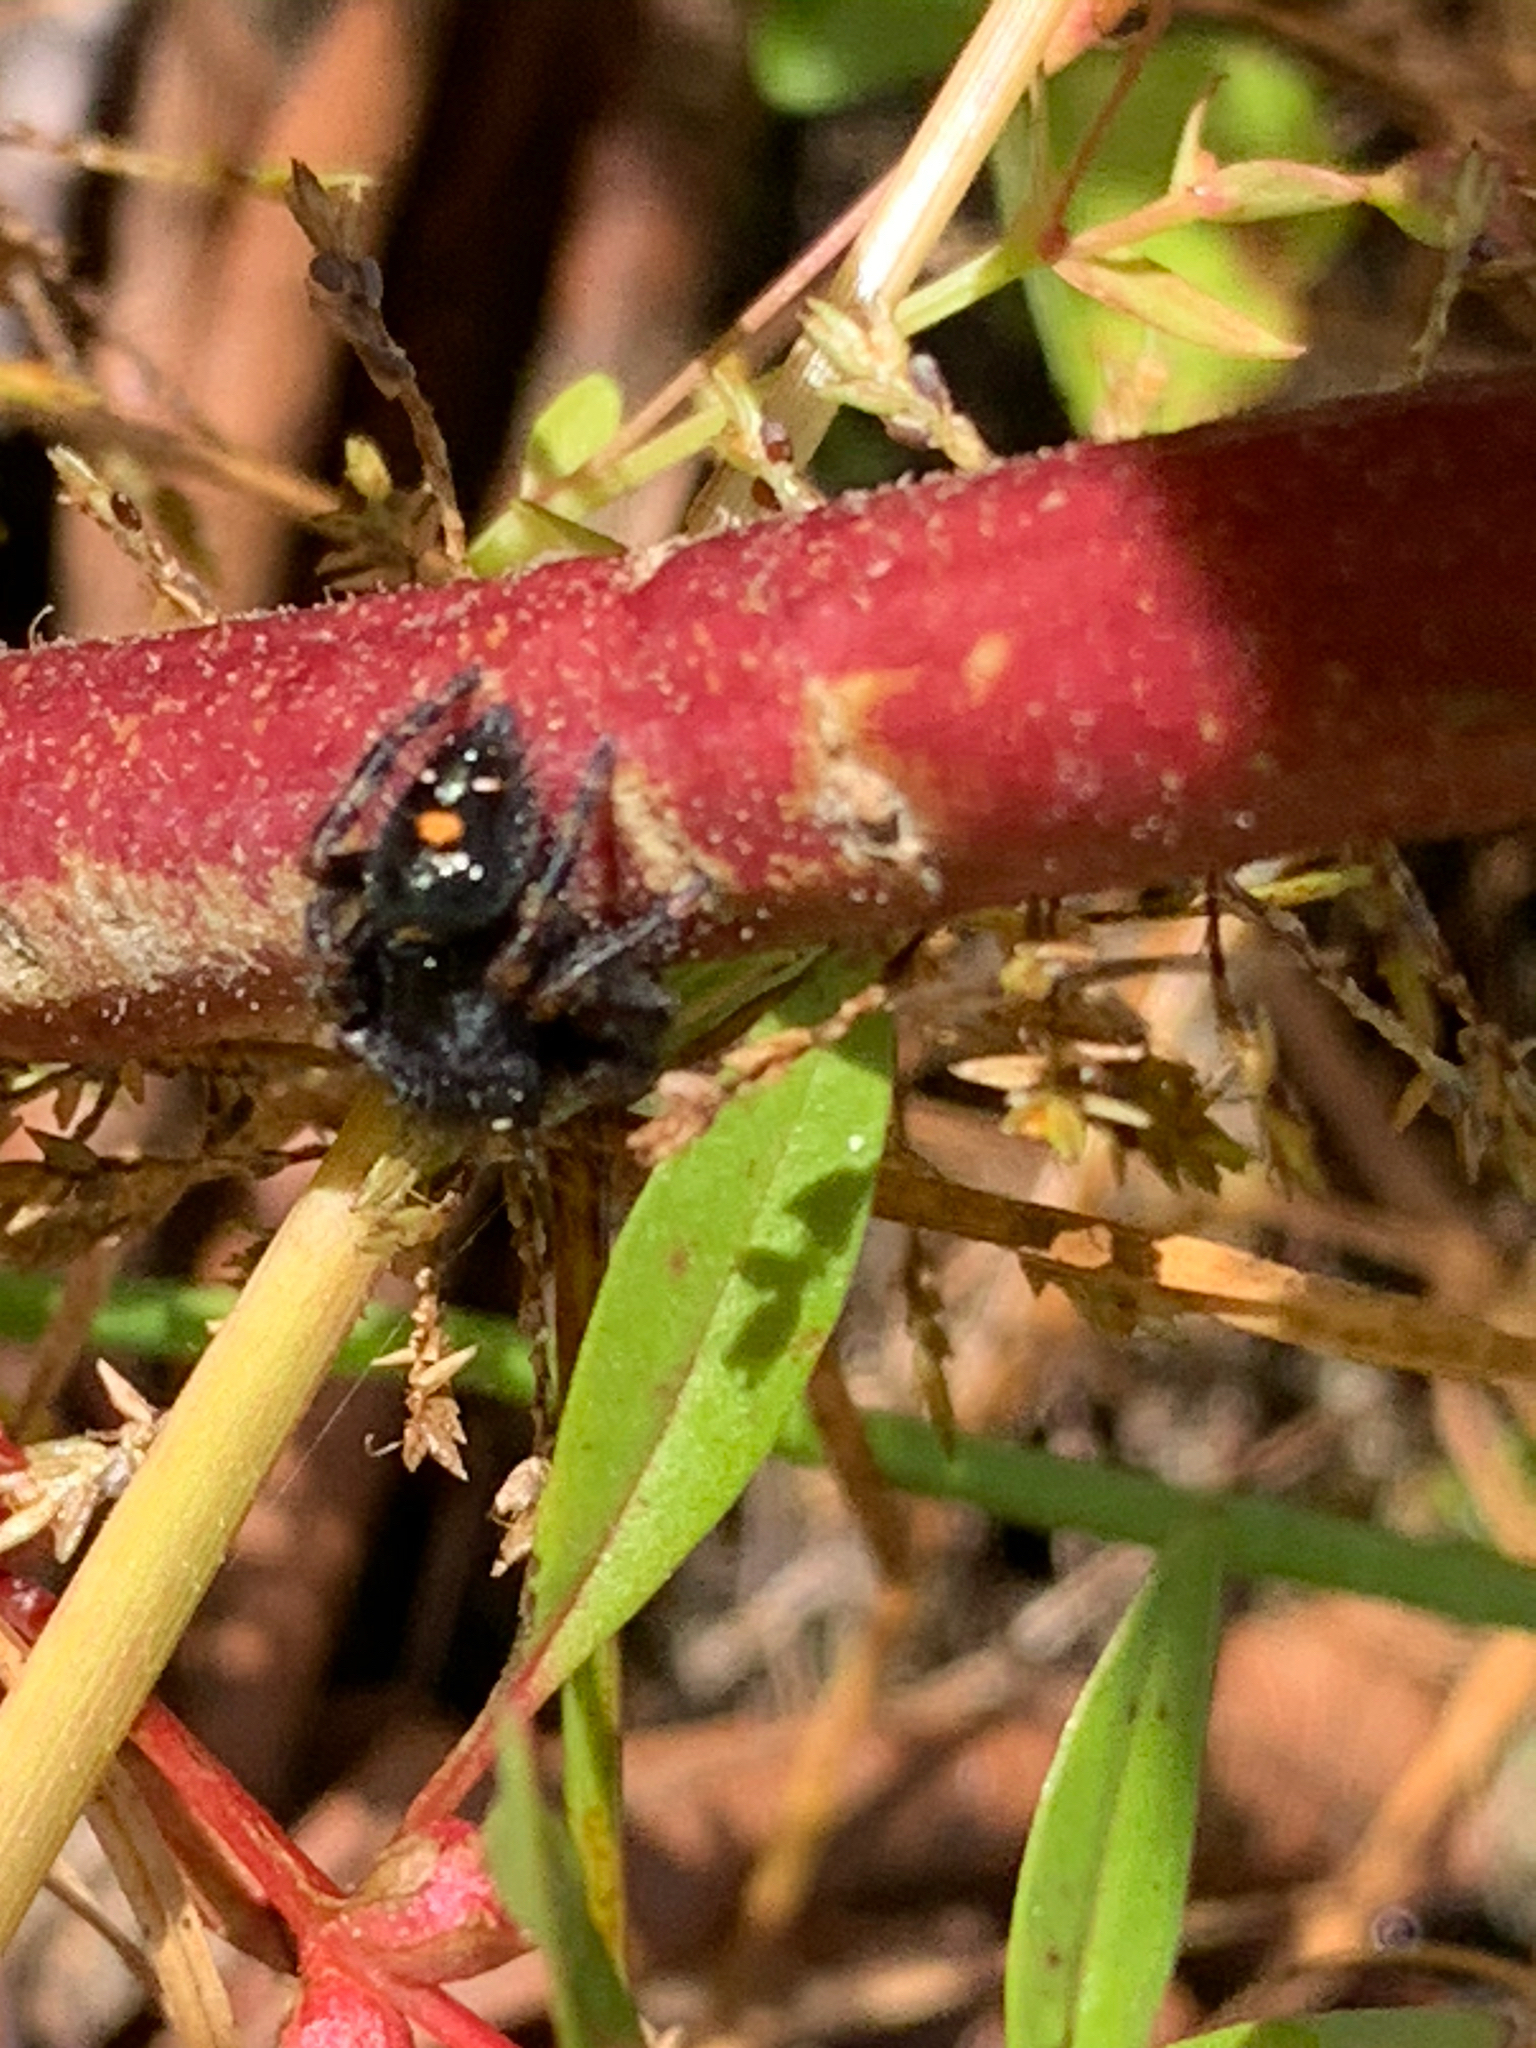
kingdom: Animalia
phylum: Arthropoda
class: Arachnida
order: Araneae
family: Salticidae
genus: Phidippus
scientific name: Phidippus audax
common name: Bold jumper
